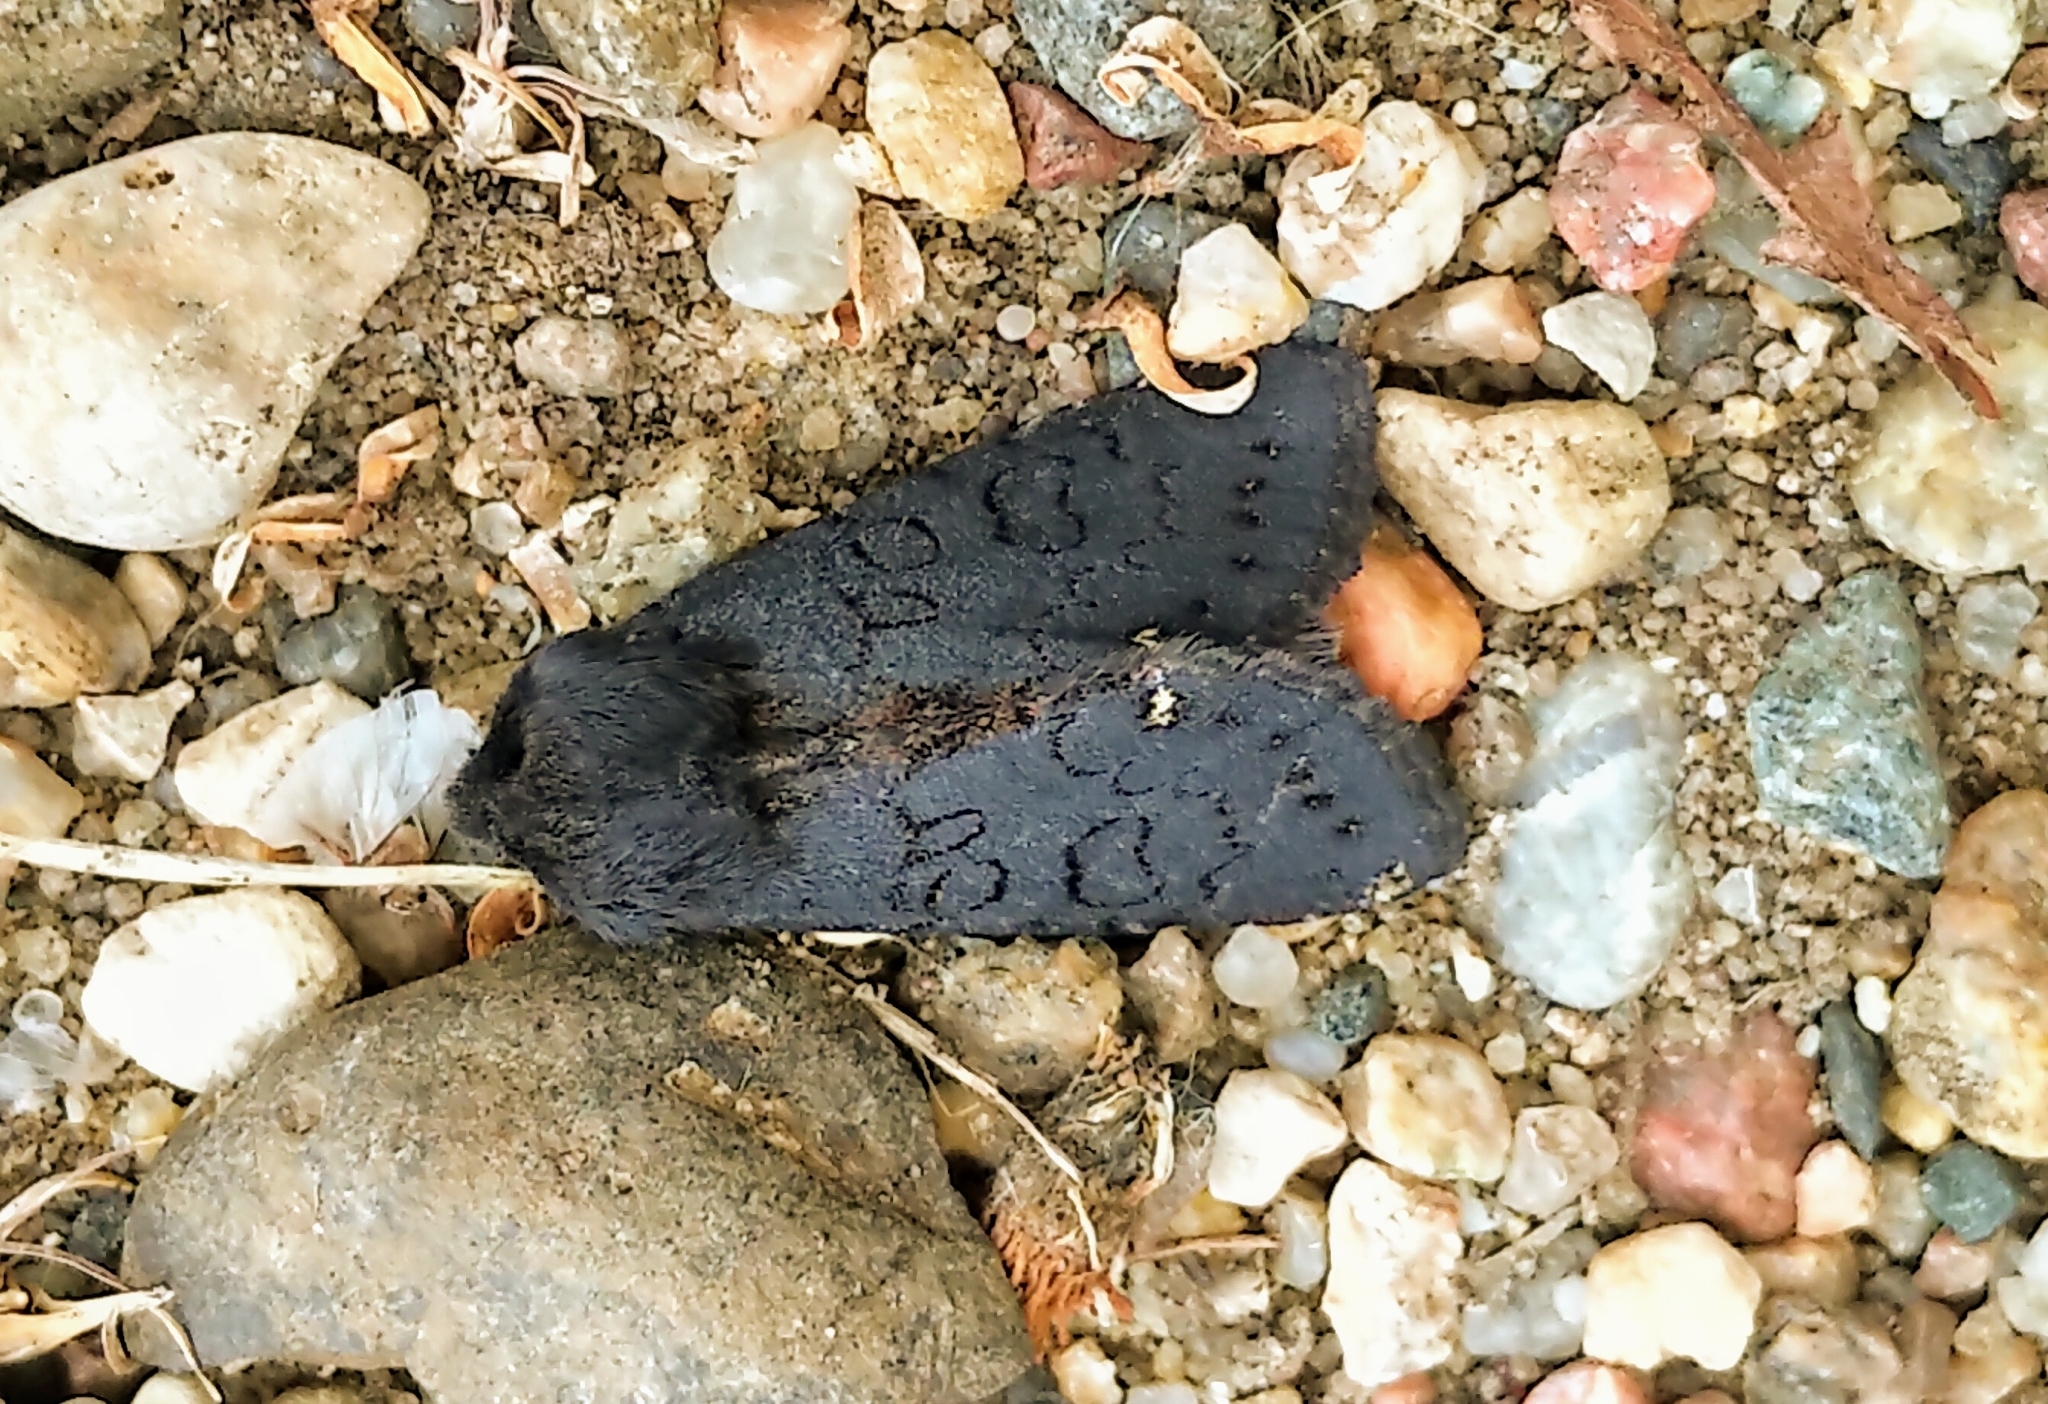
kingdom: Animalia
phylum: Arthropoda
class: Insecta
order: Lepidoptera
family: Noctuidae
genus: Melanchra
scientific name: Melanchra assimilis
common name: Black arches
